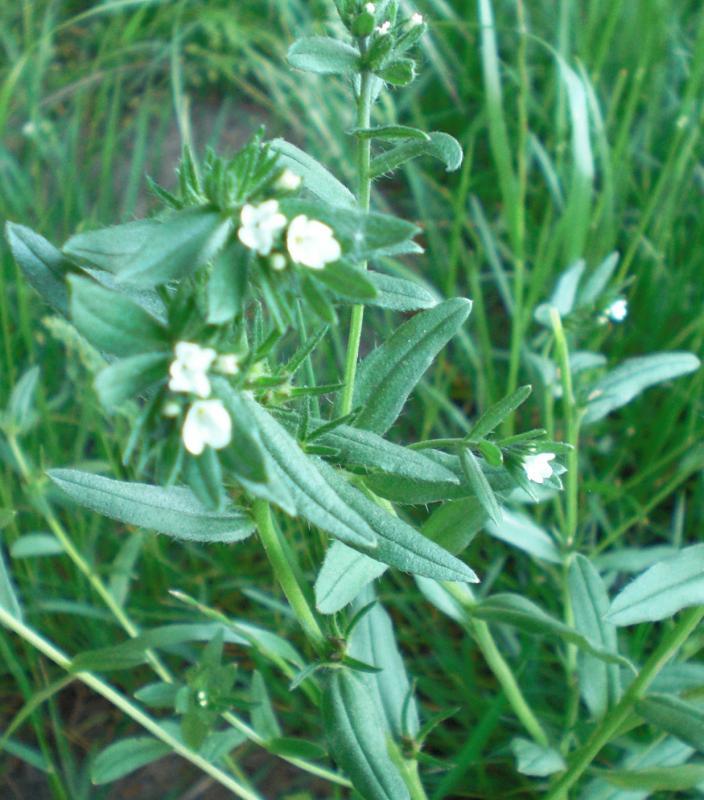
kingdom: Plantae
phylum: Tracheophyta
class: Magnoliopsida
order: Boraginales
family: Boraginaceae
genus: Buglossoides
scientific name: Buglossoides arvensis
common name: Corn gromwell
